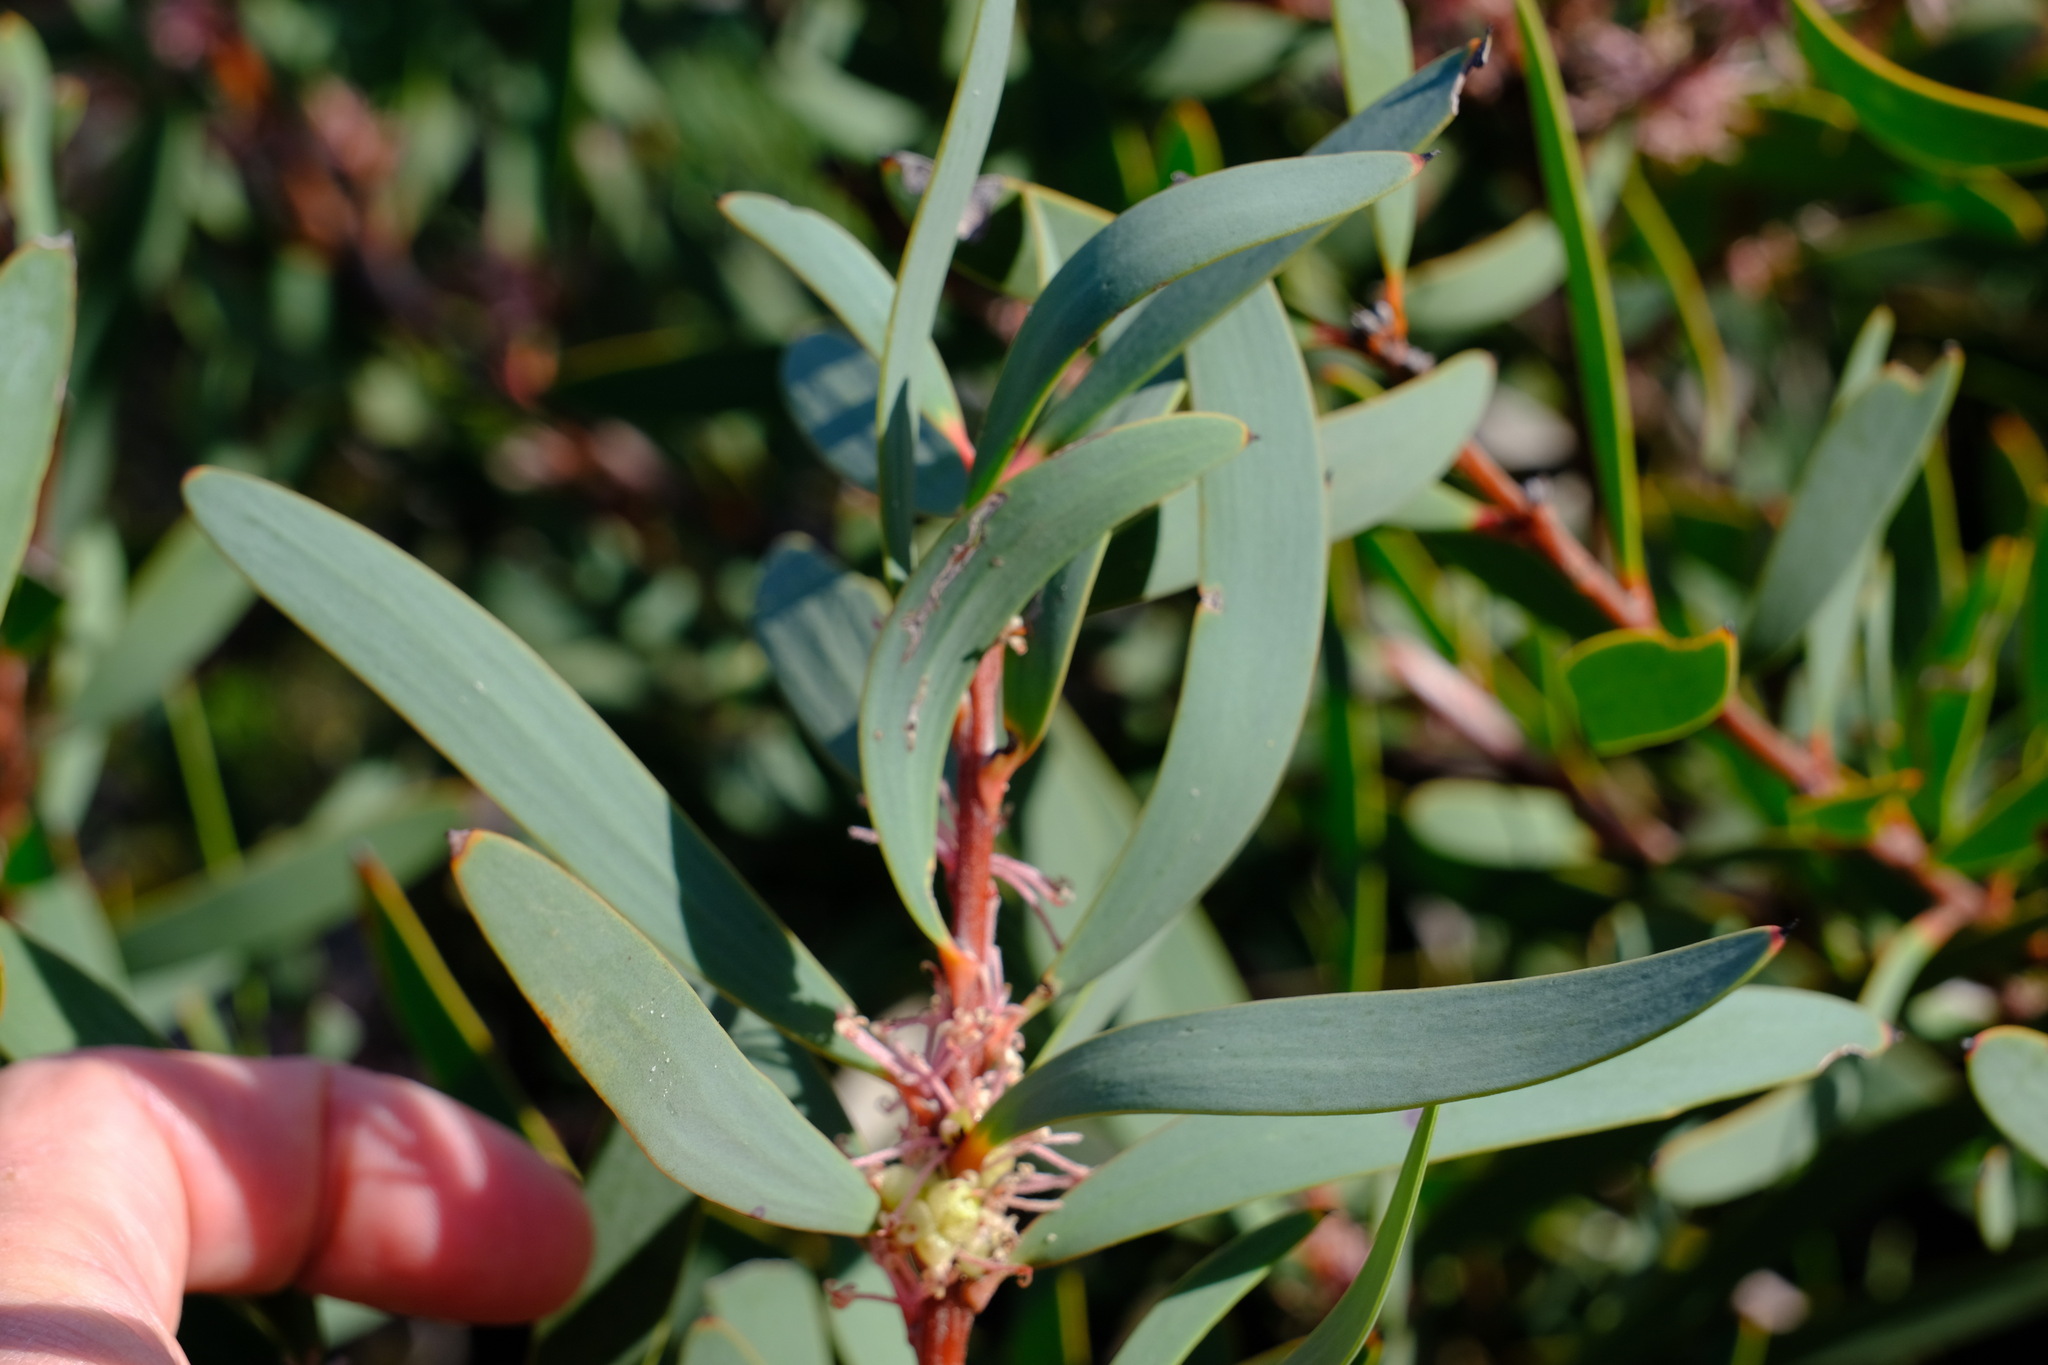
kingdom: Plantae
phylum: Tracheophyta
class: Magnoliopsida
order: Proteales
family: Proteaceae
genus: Hakea
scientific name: Hakea incrassata
